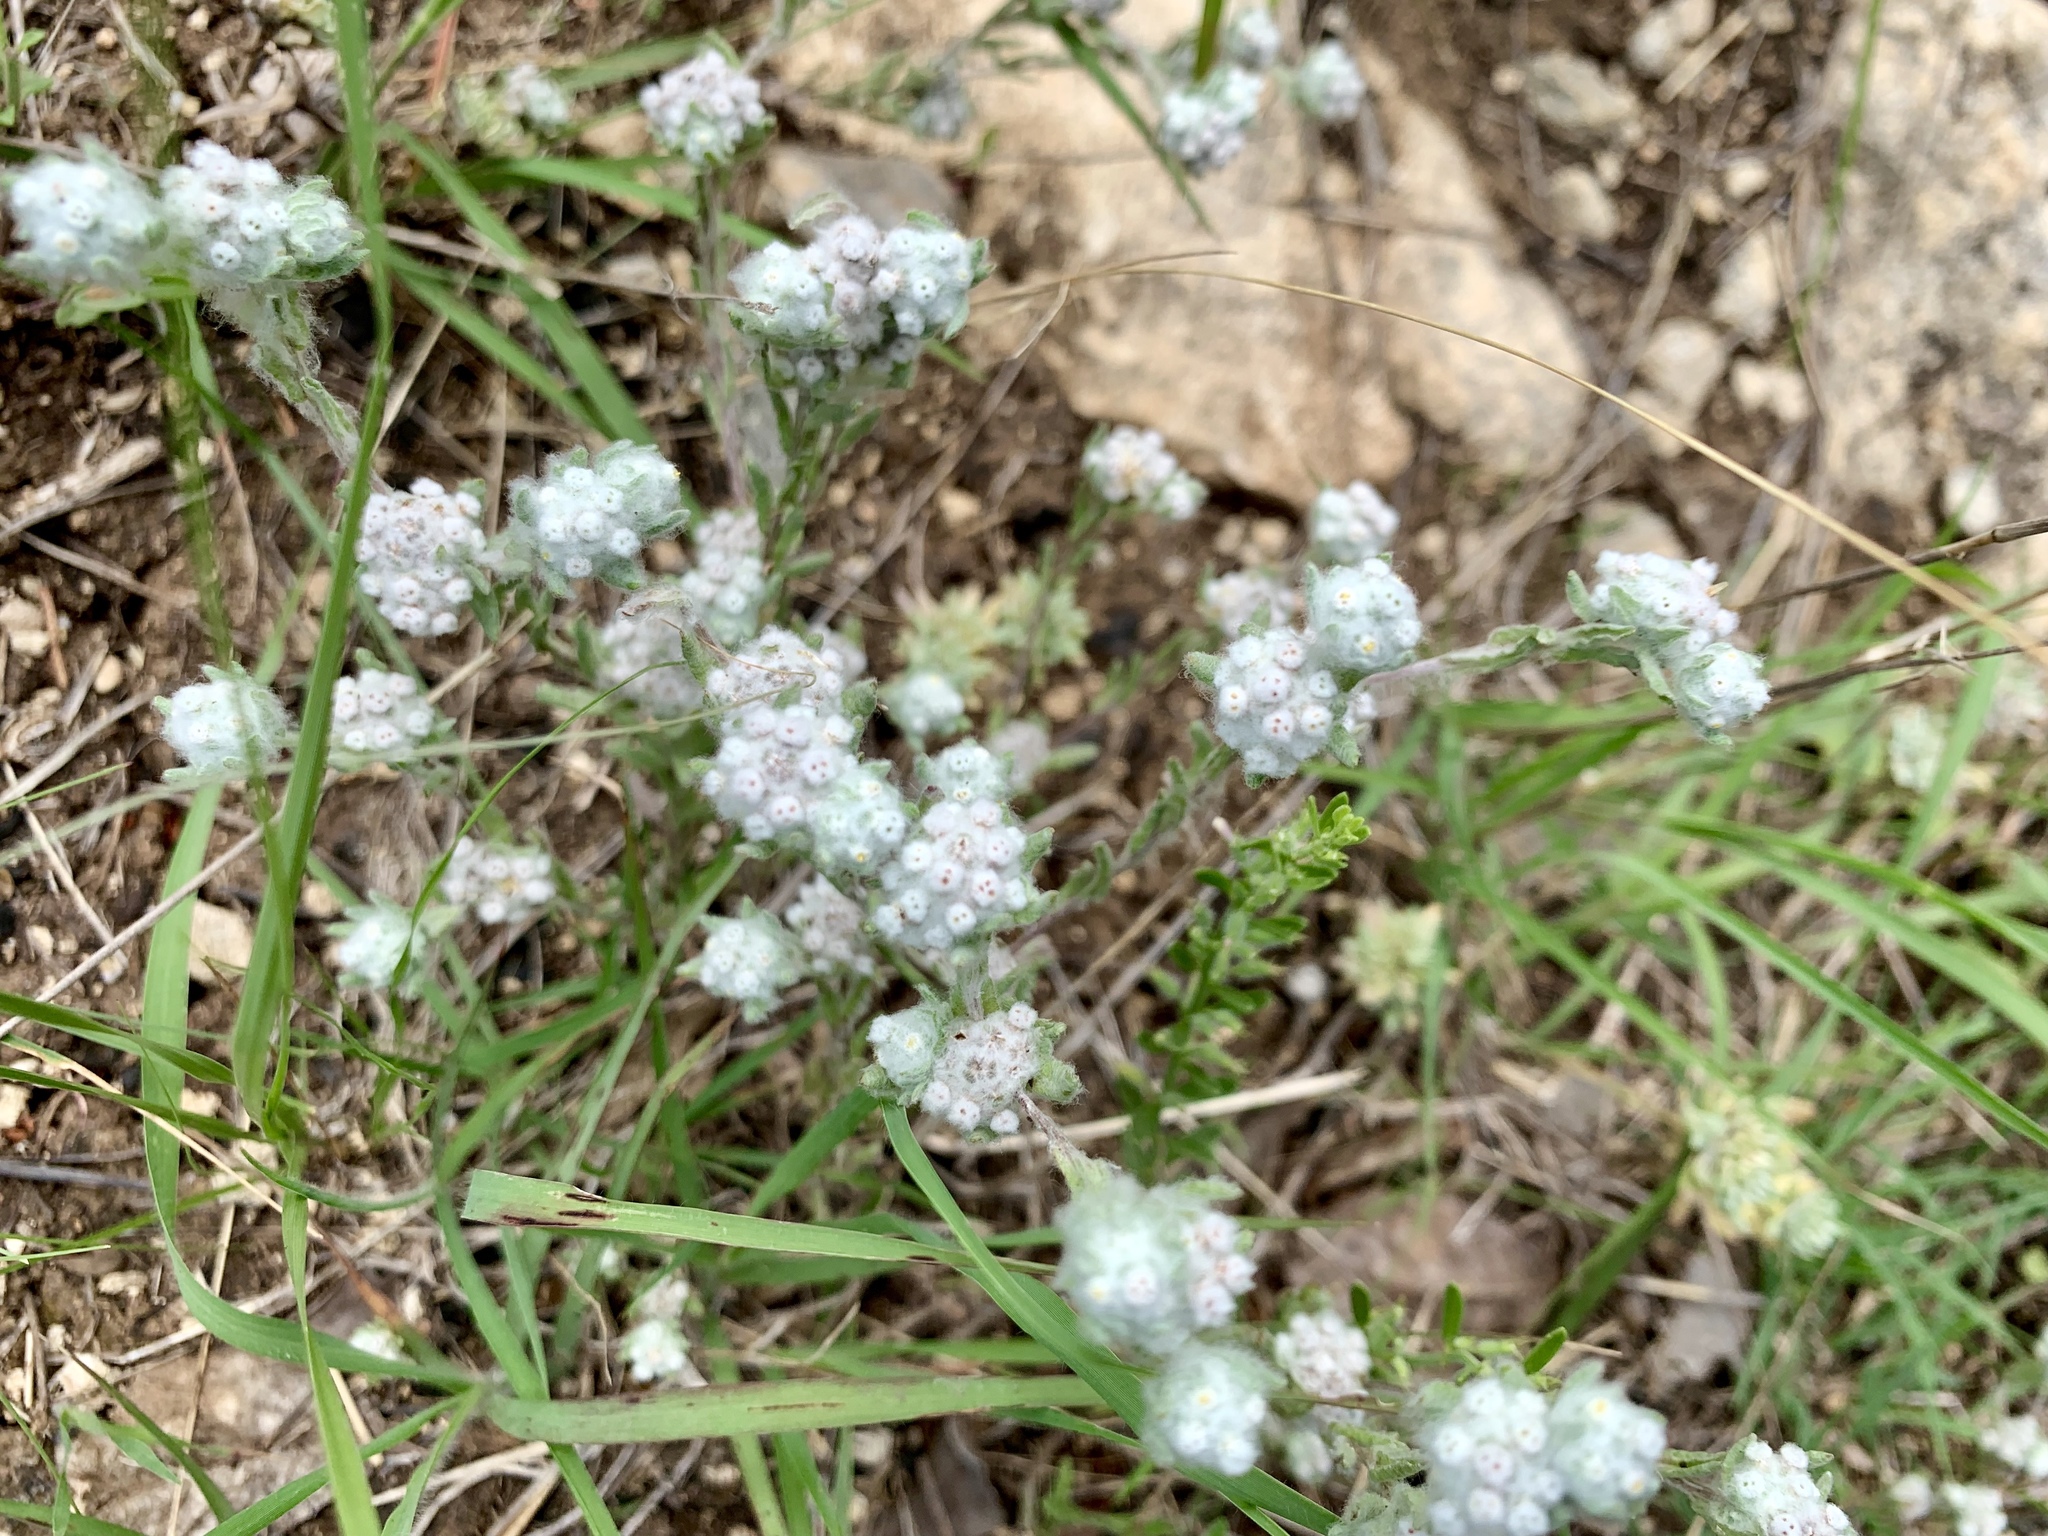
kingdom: Plantae
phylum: Tracheophyta
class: Magnoliopsida
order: Asterales
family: Asteraceae
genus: Diaperia
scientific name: Diaperia verna
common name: Many-stem rabbit-tobacco
